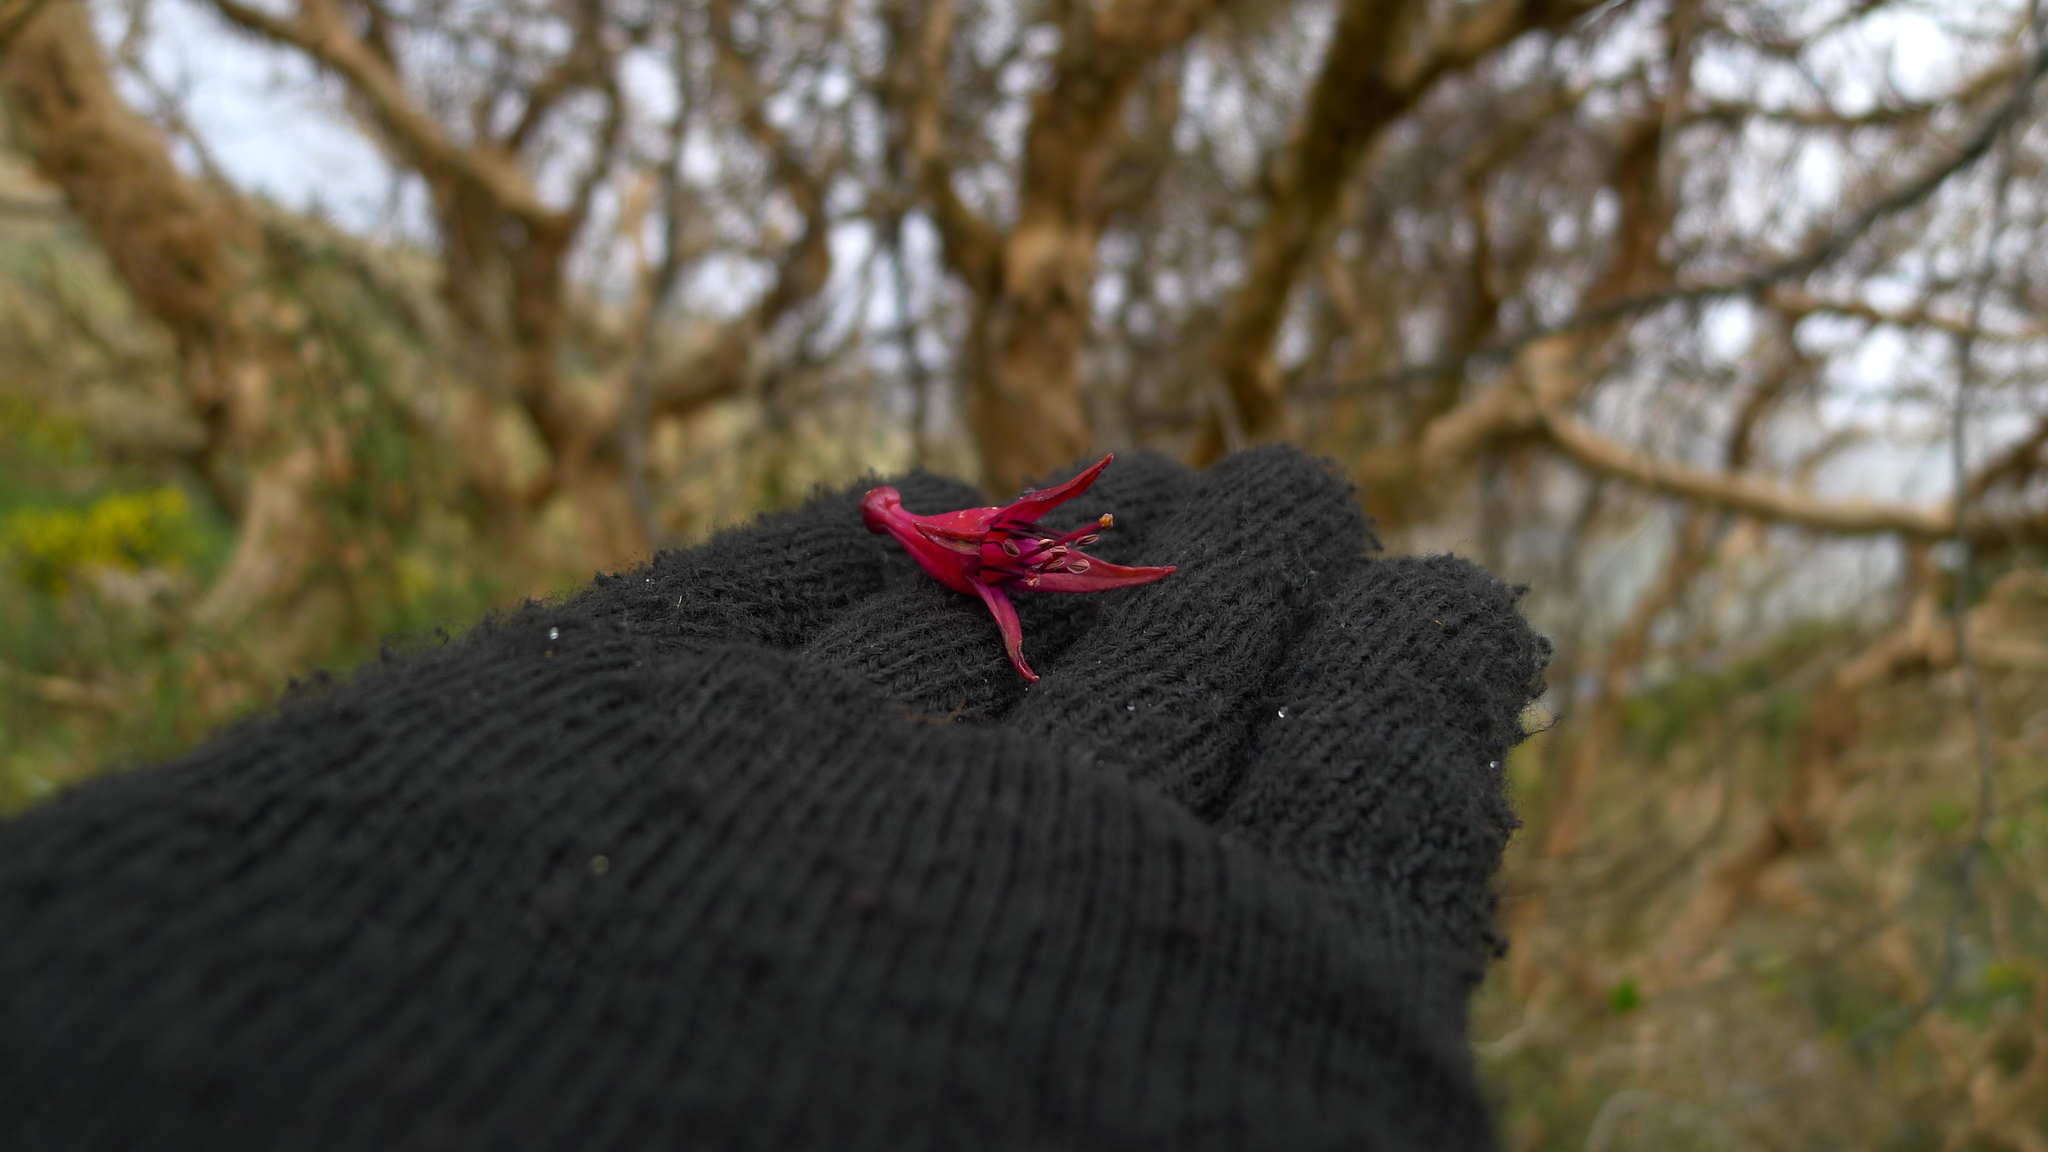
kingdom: Plantae
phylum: Tracheophyta
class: Magnoliopsida
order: Myrtales
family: Onagraceae
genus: Fuchsia
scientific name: Fuchsia excorticata
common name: Tree fuchsia
